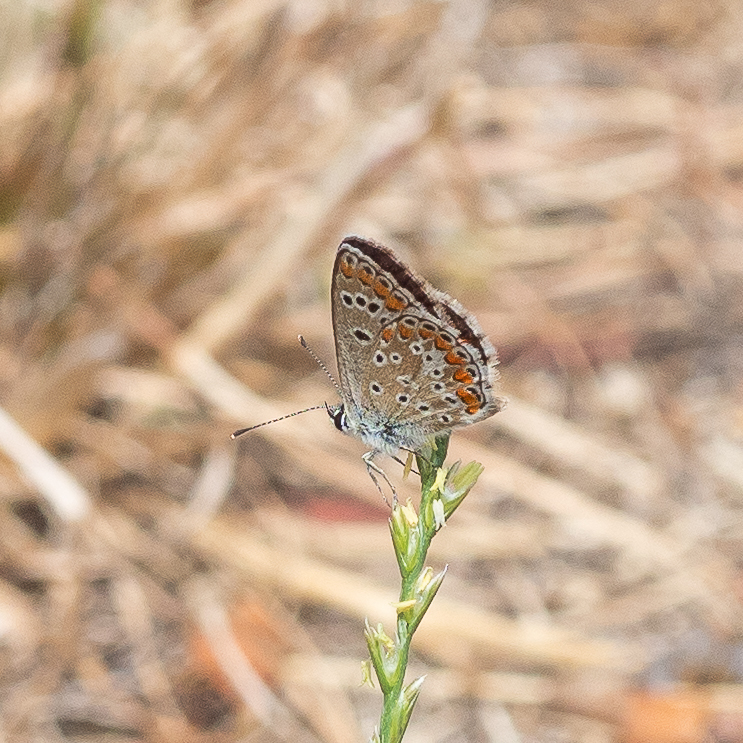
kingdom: Animalia
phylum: Arthropoda
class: Insecta
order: Lepidoptera
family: Lycaenidae
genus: Aricia
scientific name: Aricia agestis
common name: Brown argus
